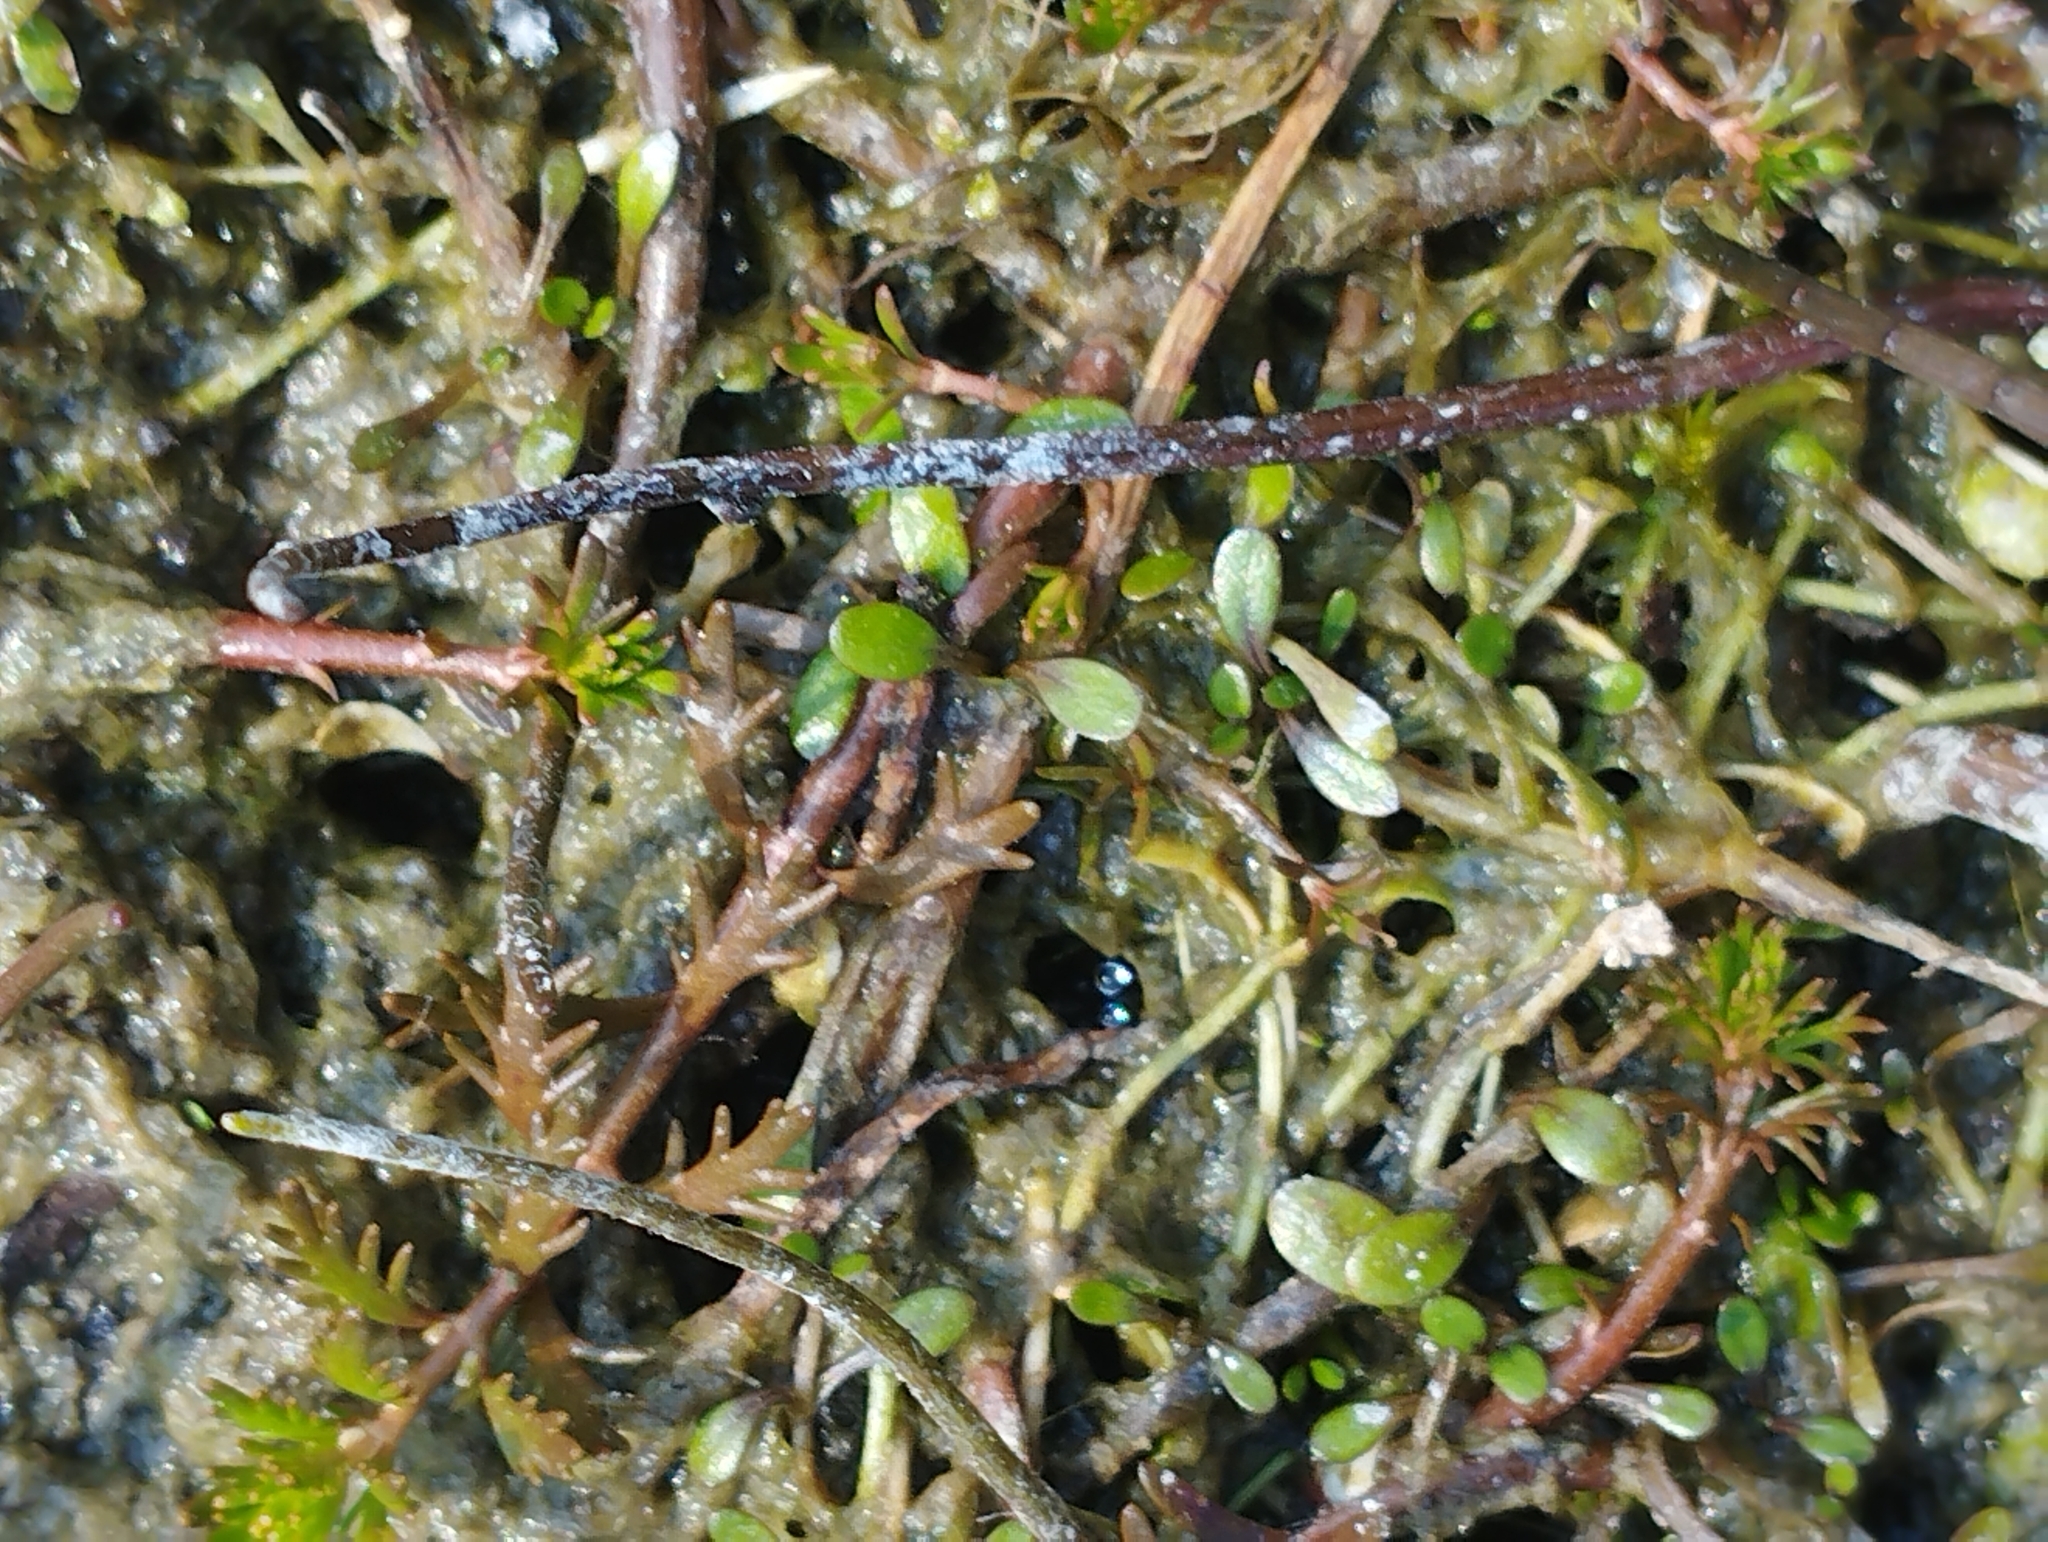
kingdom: Plantae
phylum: Tracheophyta
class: Magnoliopsida
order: Lamiales
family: Phrymaceae
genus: Glossostigma
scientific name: Glossostigma elatinoides
